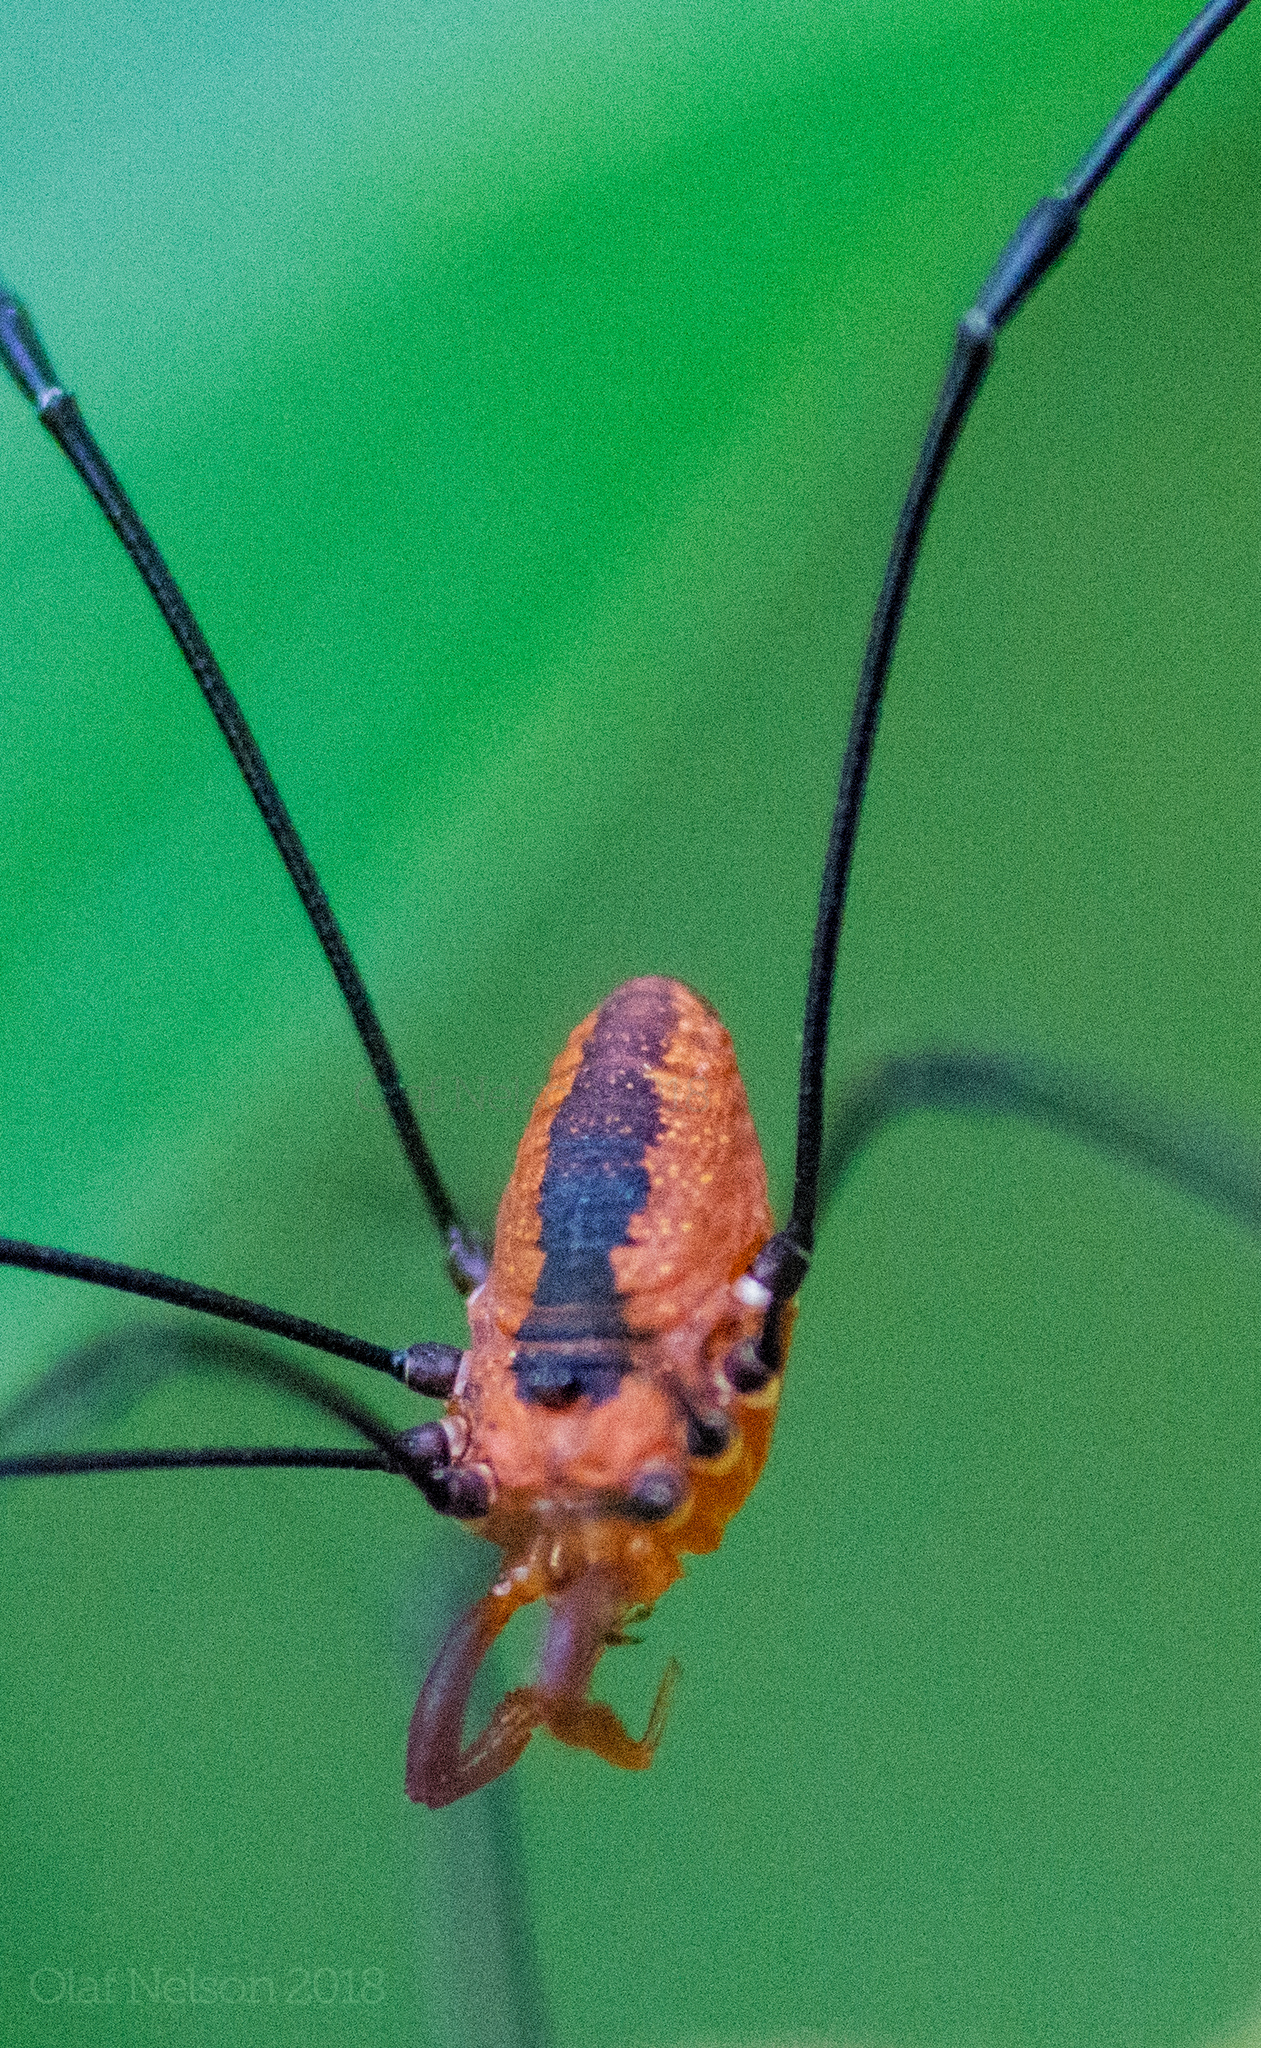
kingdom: Animalia
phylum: Arthropoda
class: Arachnida
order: Opiliones
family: Sclerosomatidae
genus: Leiobunum
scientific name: Leiobunum vittatum
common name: Eastern harvestman
